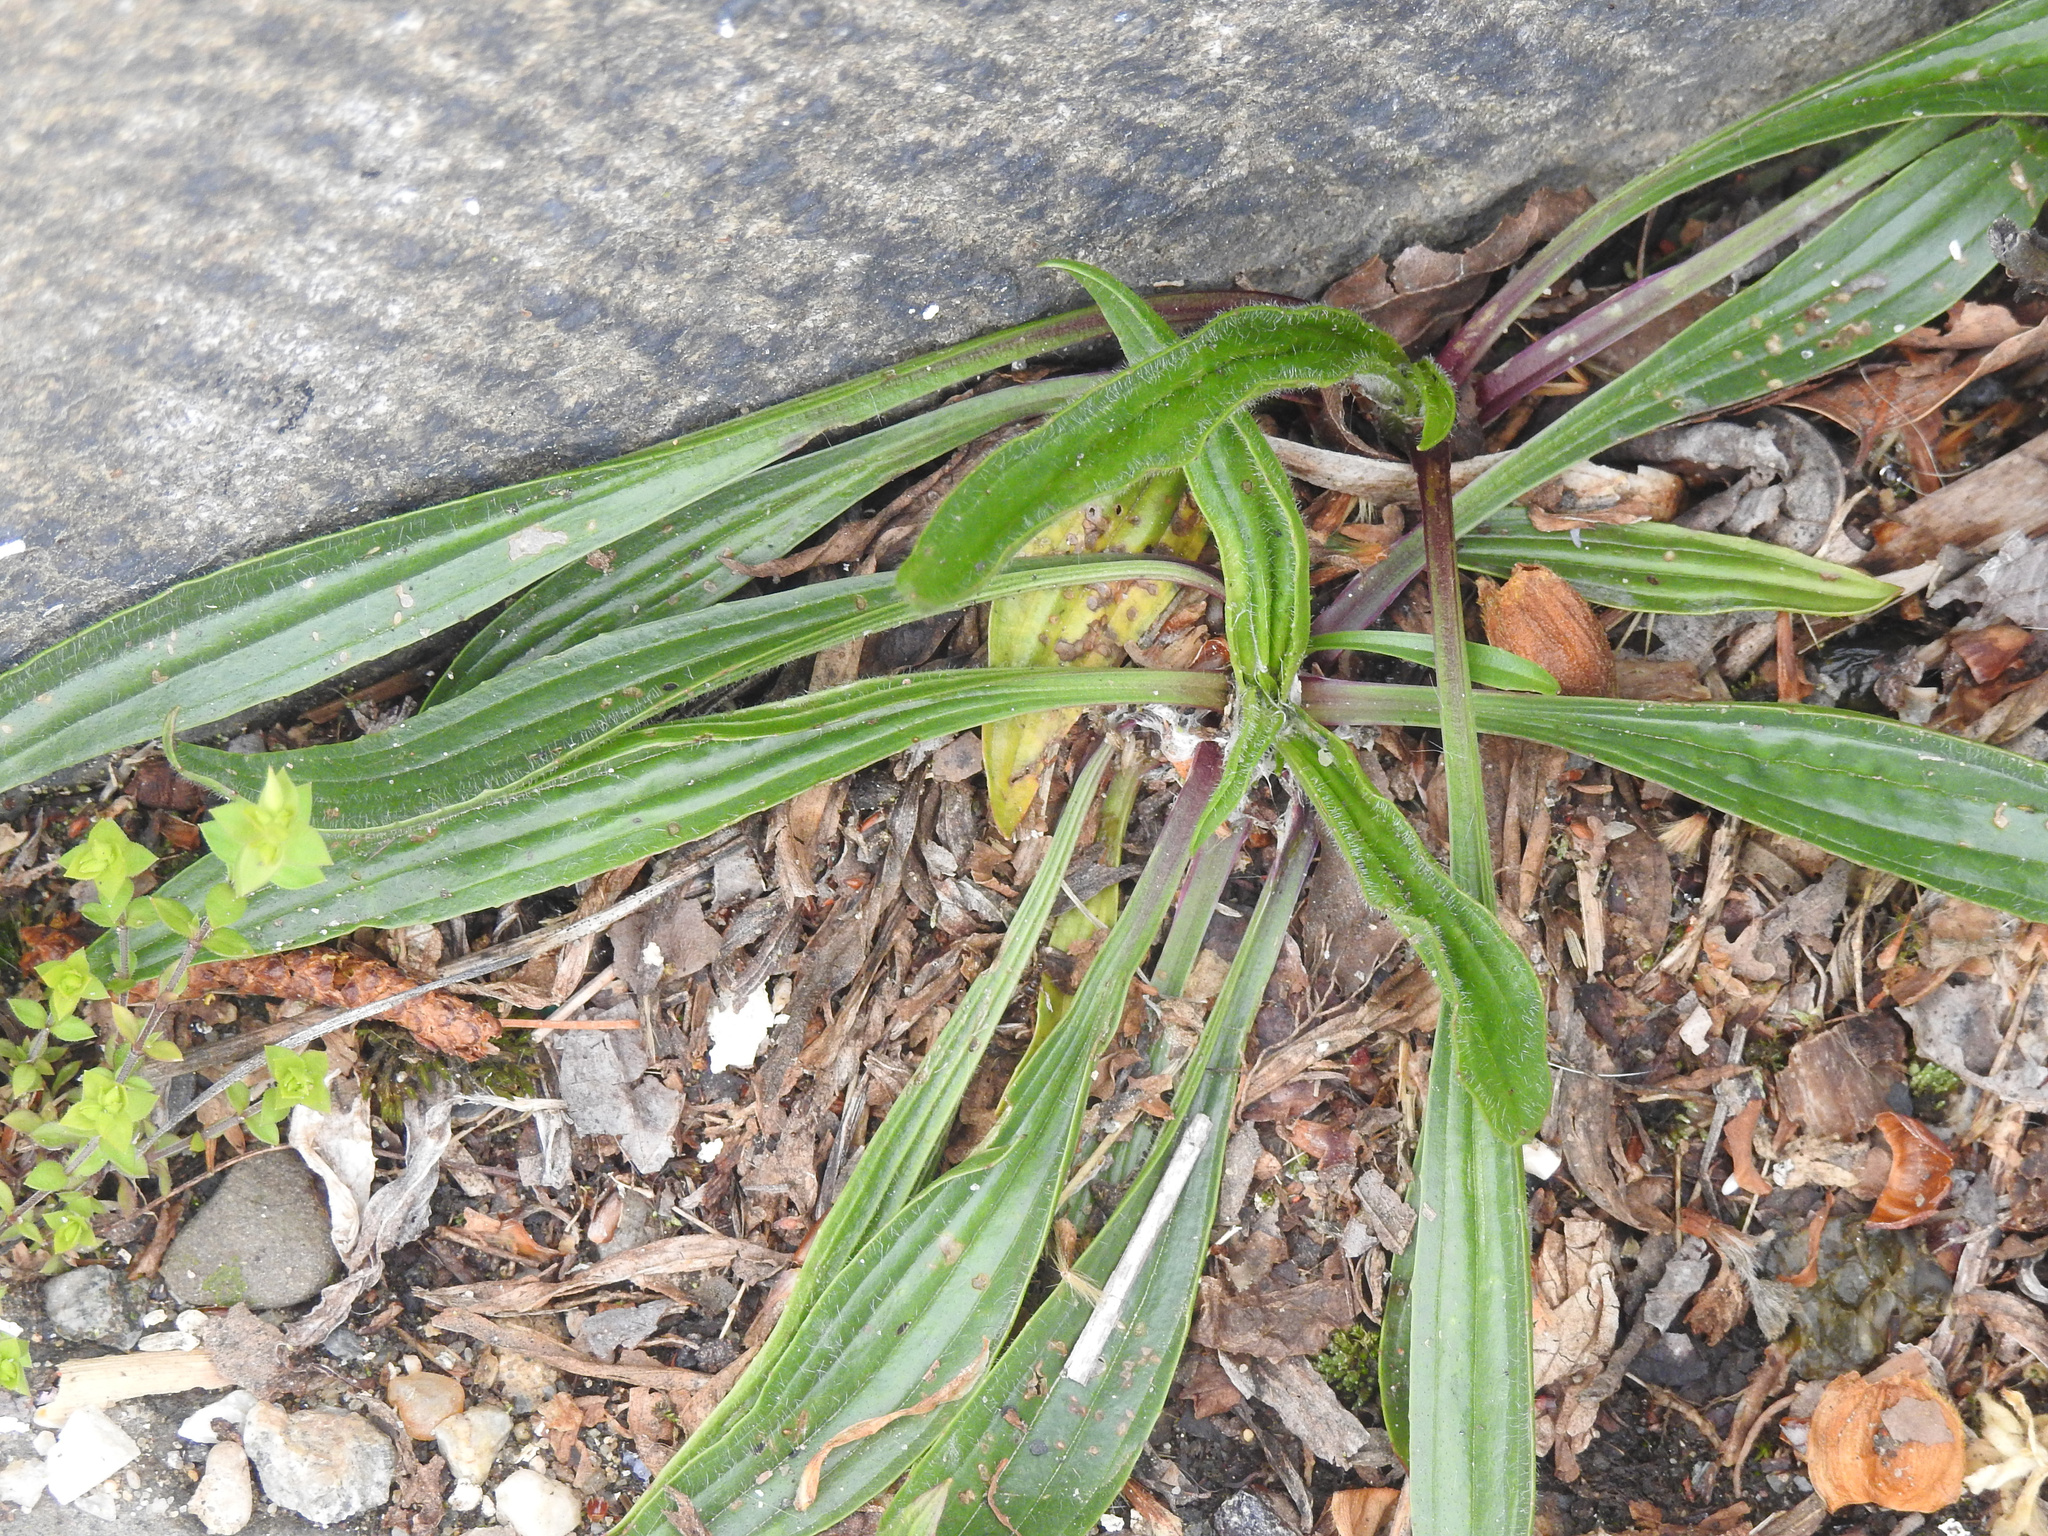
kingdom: Plantae
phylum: Tracheophyta
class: Magnoliopsida
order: Lamiales
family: Plantaginaceae
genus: Plantago
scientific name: Plantago lanceolata
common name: Ribwort plantain
